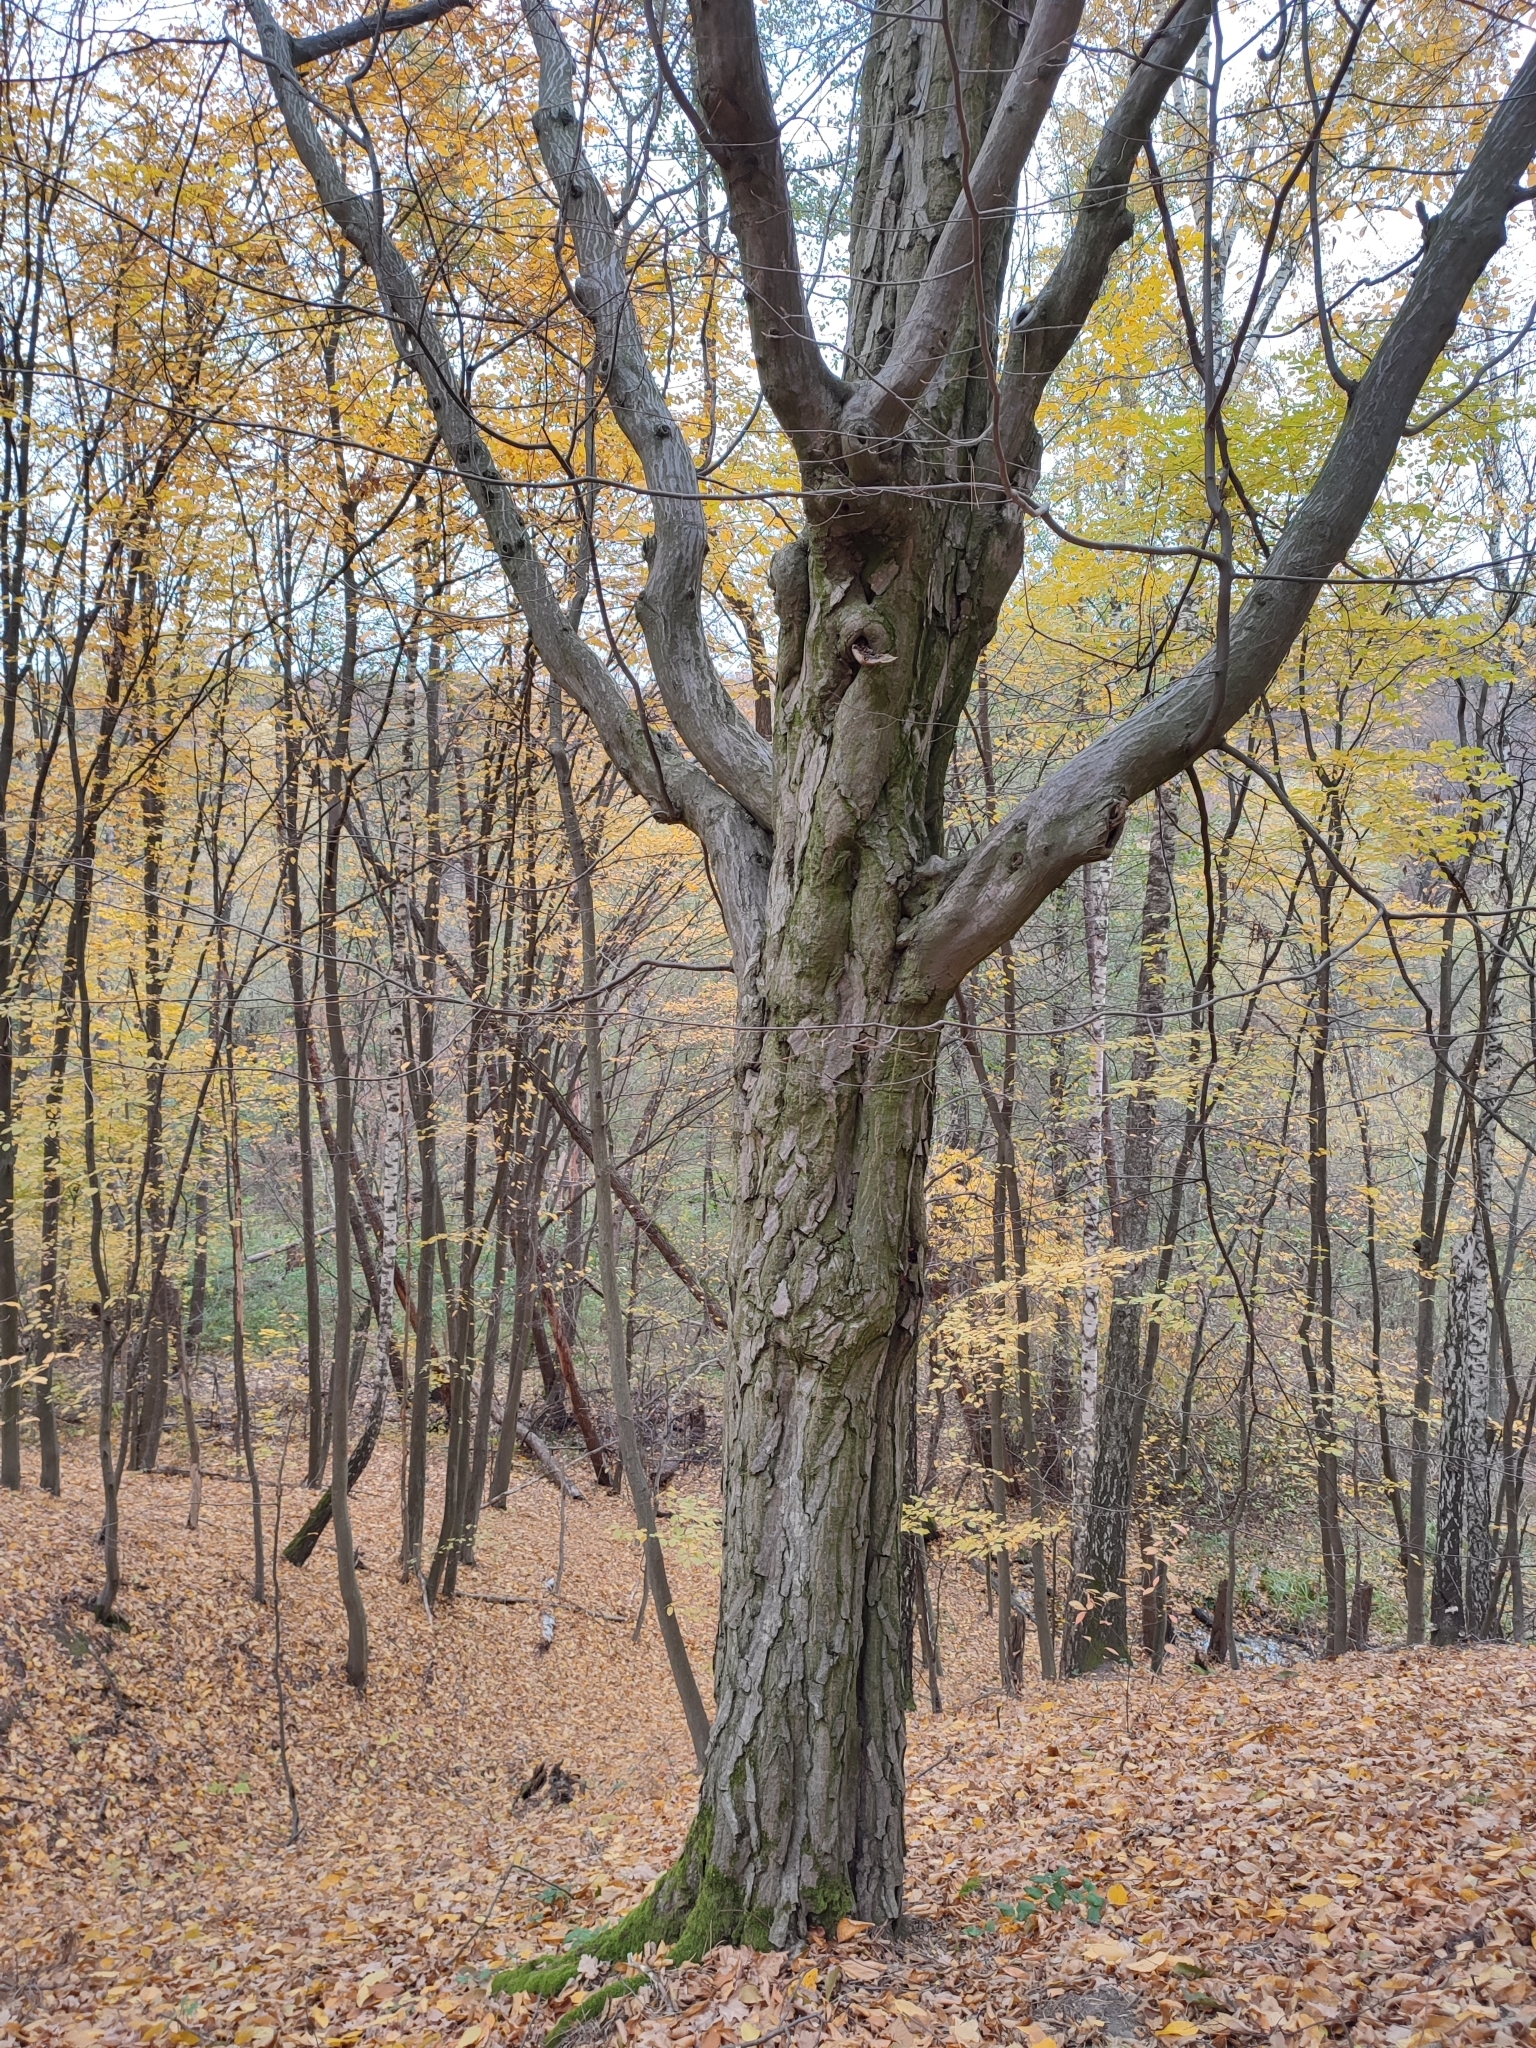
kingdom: Plantae
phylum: Tracheophyta
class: Magnoliopsida
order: Fagales
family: Betulaceae
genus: Carpinus
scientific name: Carpinus betulus
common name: Hornbeam
